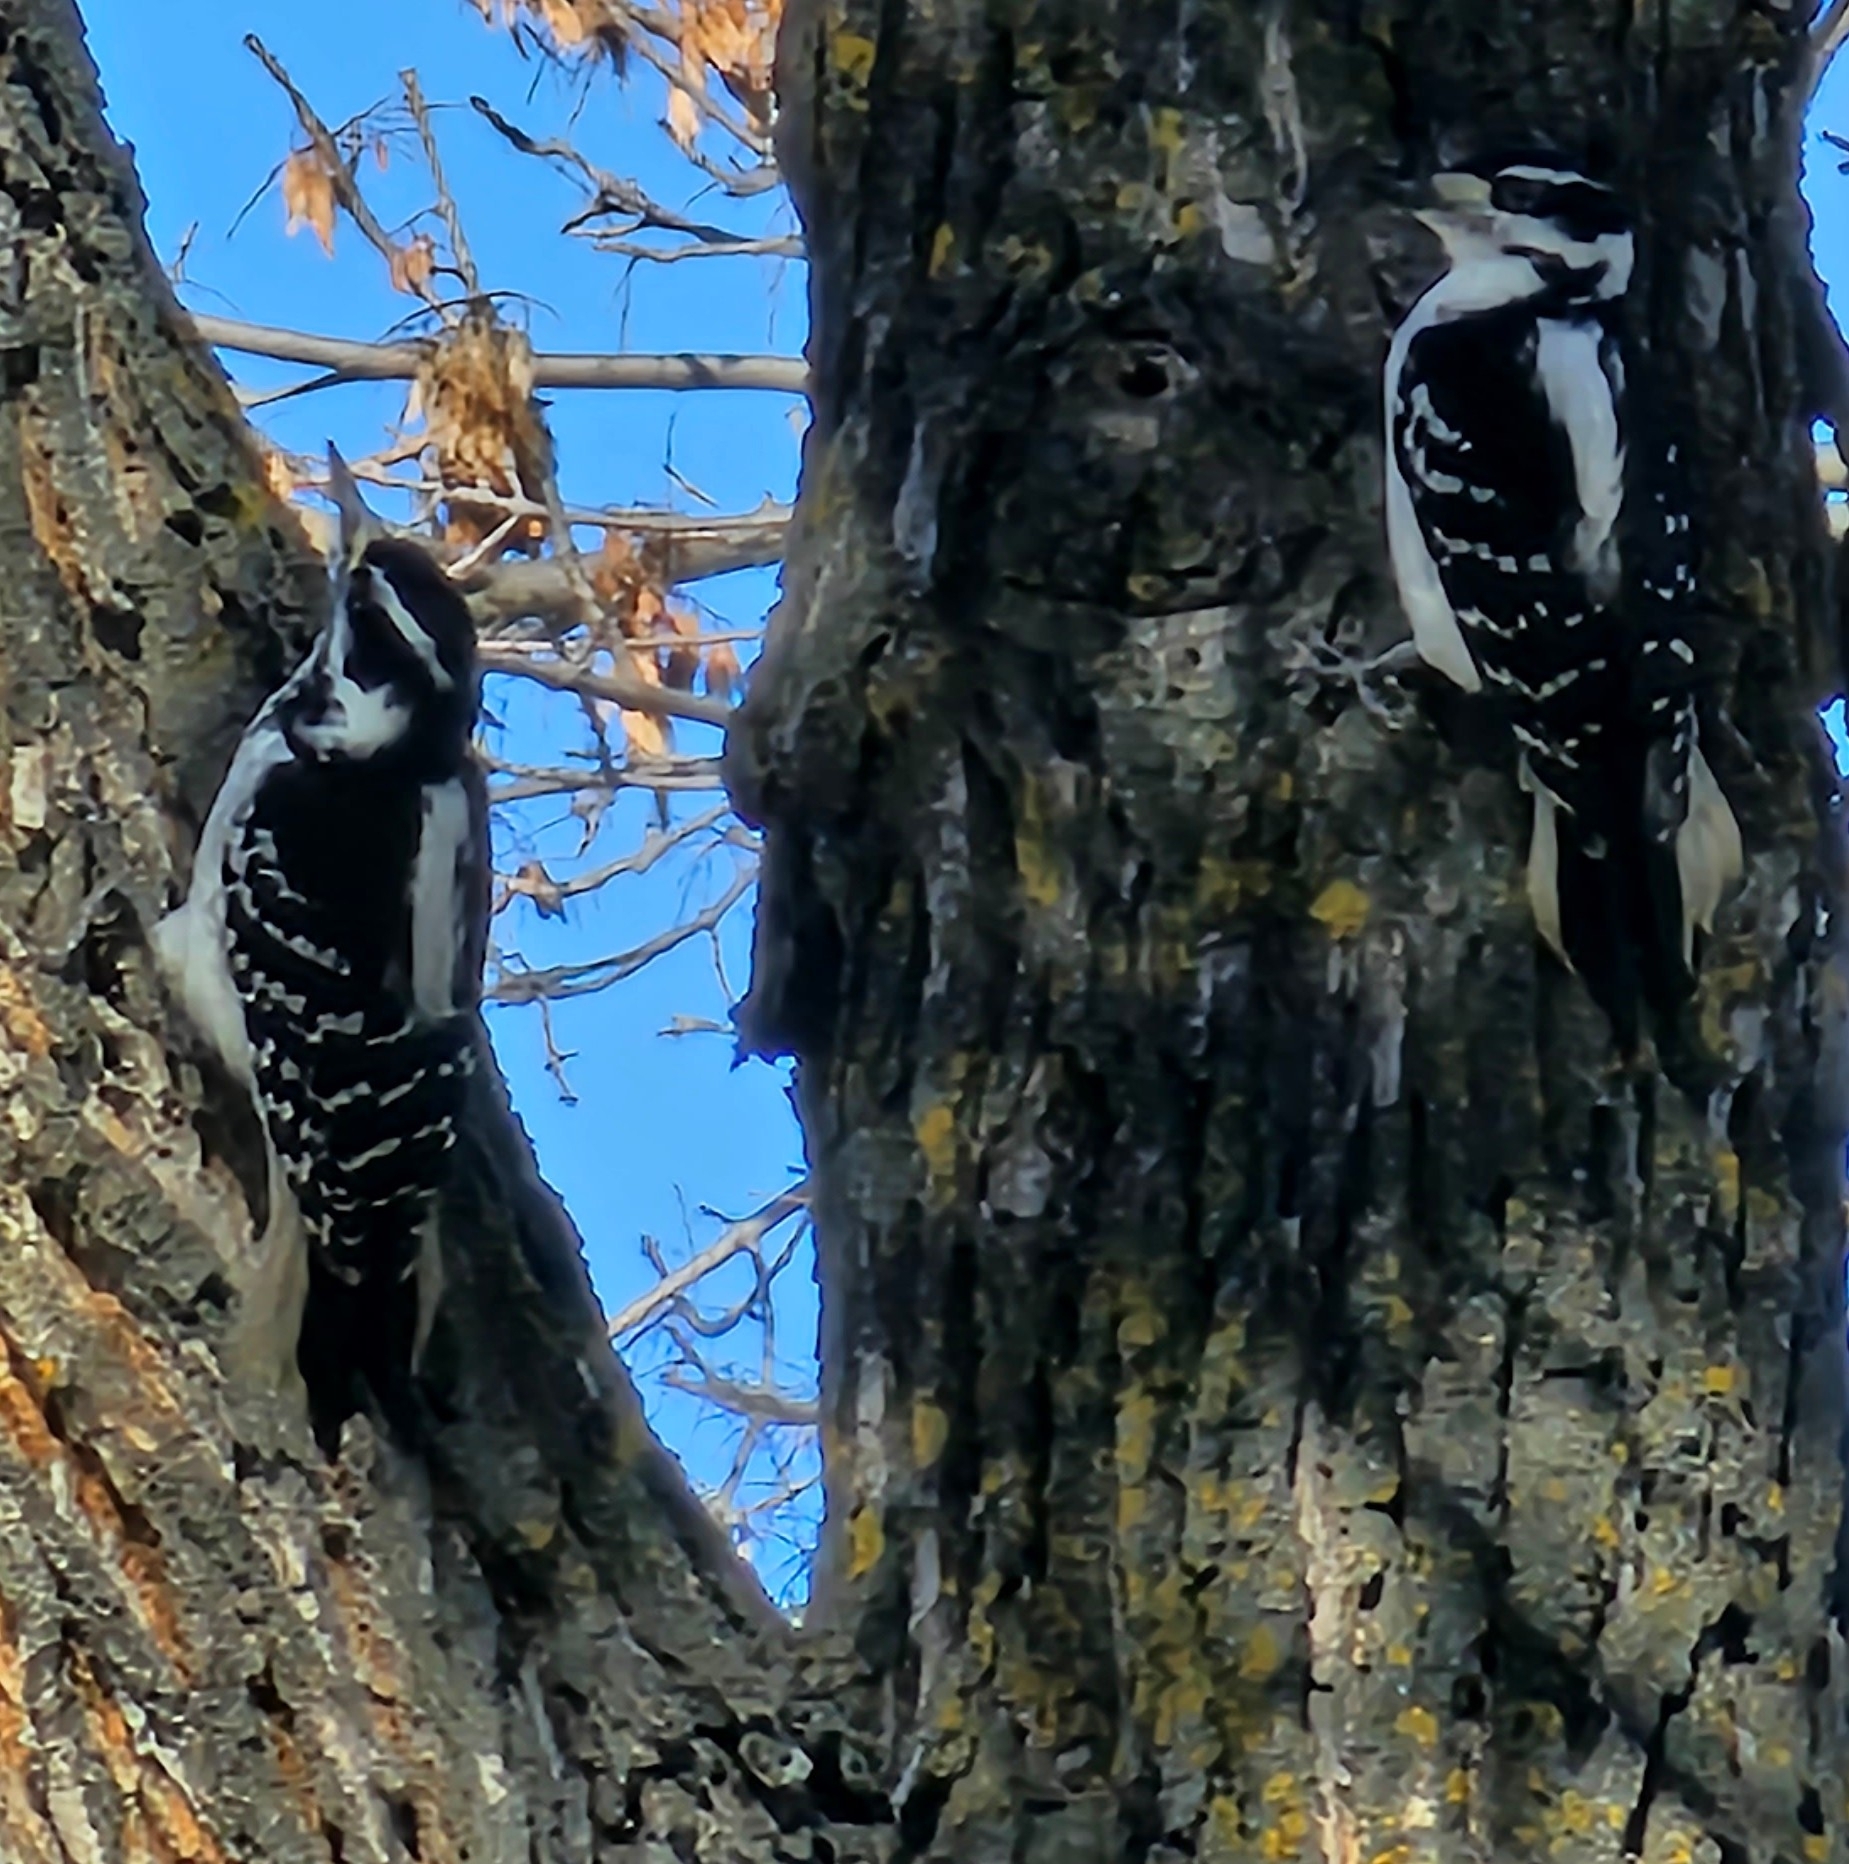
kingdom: Animalia
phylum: Chordata
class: Aves
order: Piciformes
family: Picidae
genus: Leuconotopicus
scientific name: Leuconotopicus villosus
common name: Hairy woodpecker
